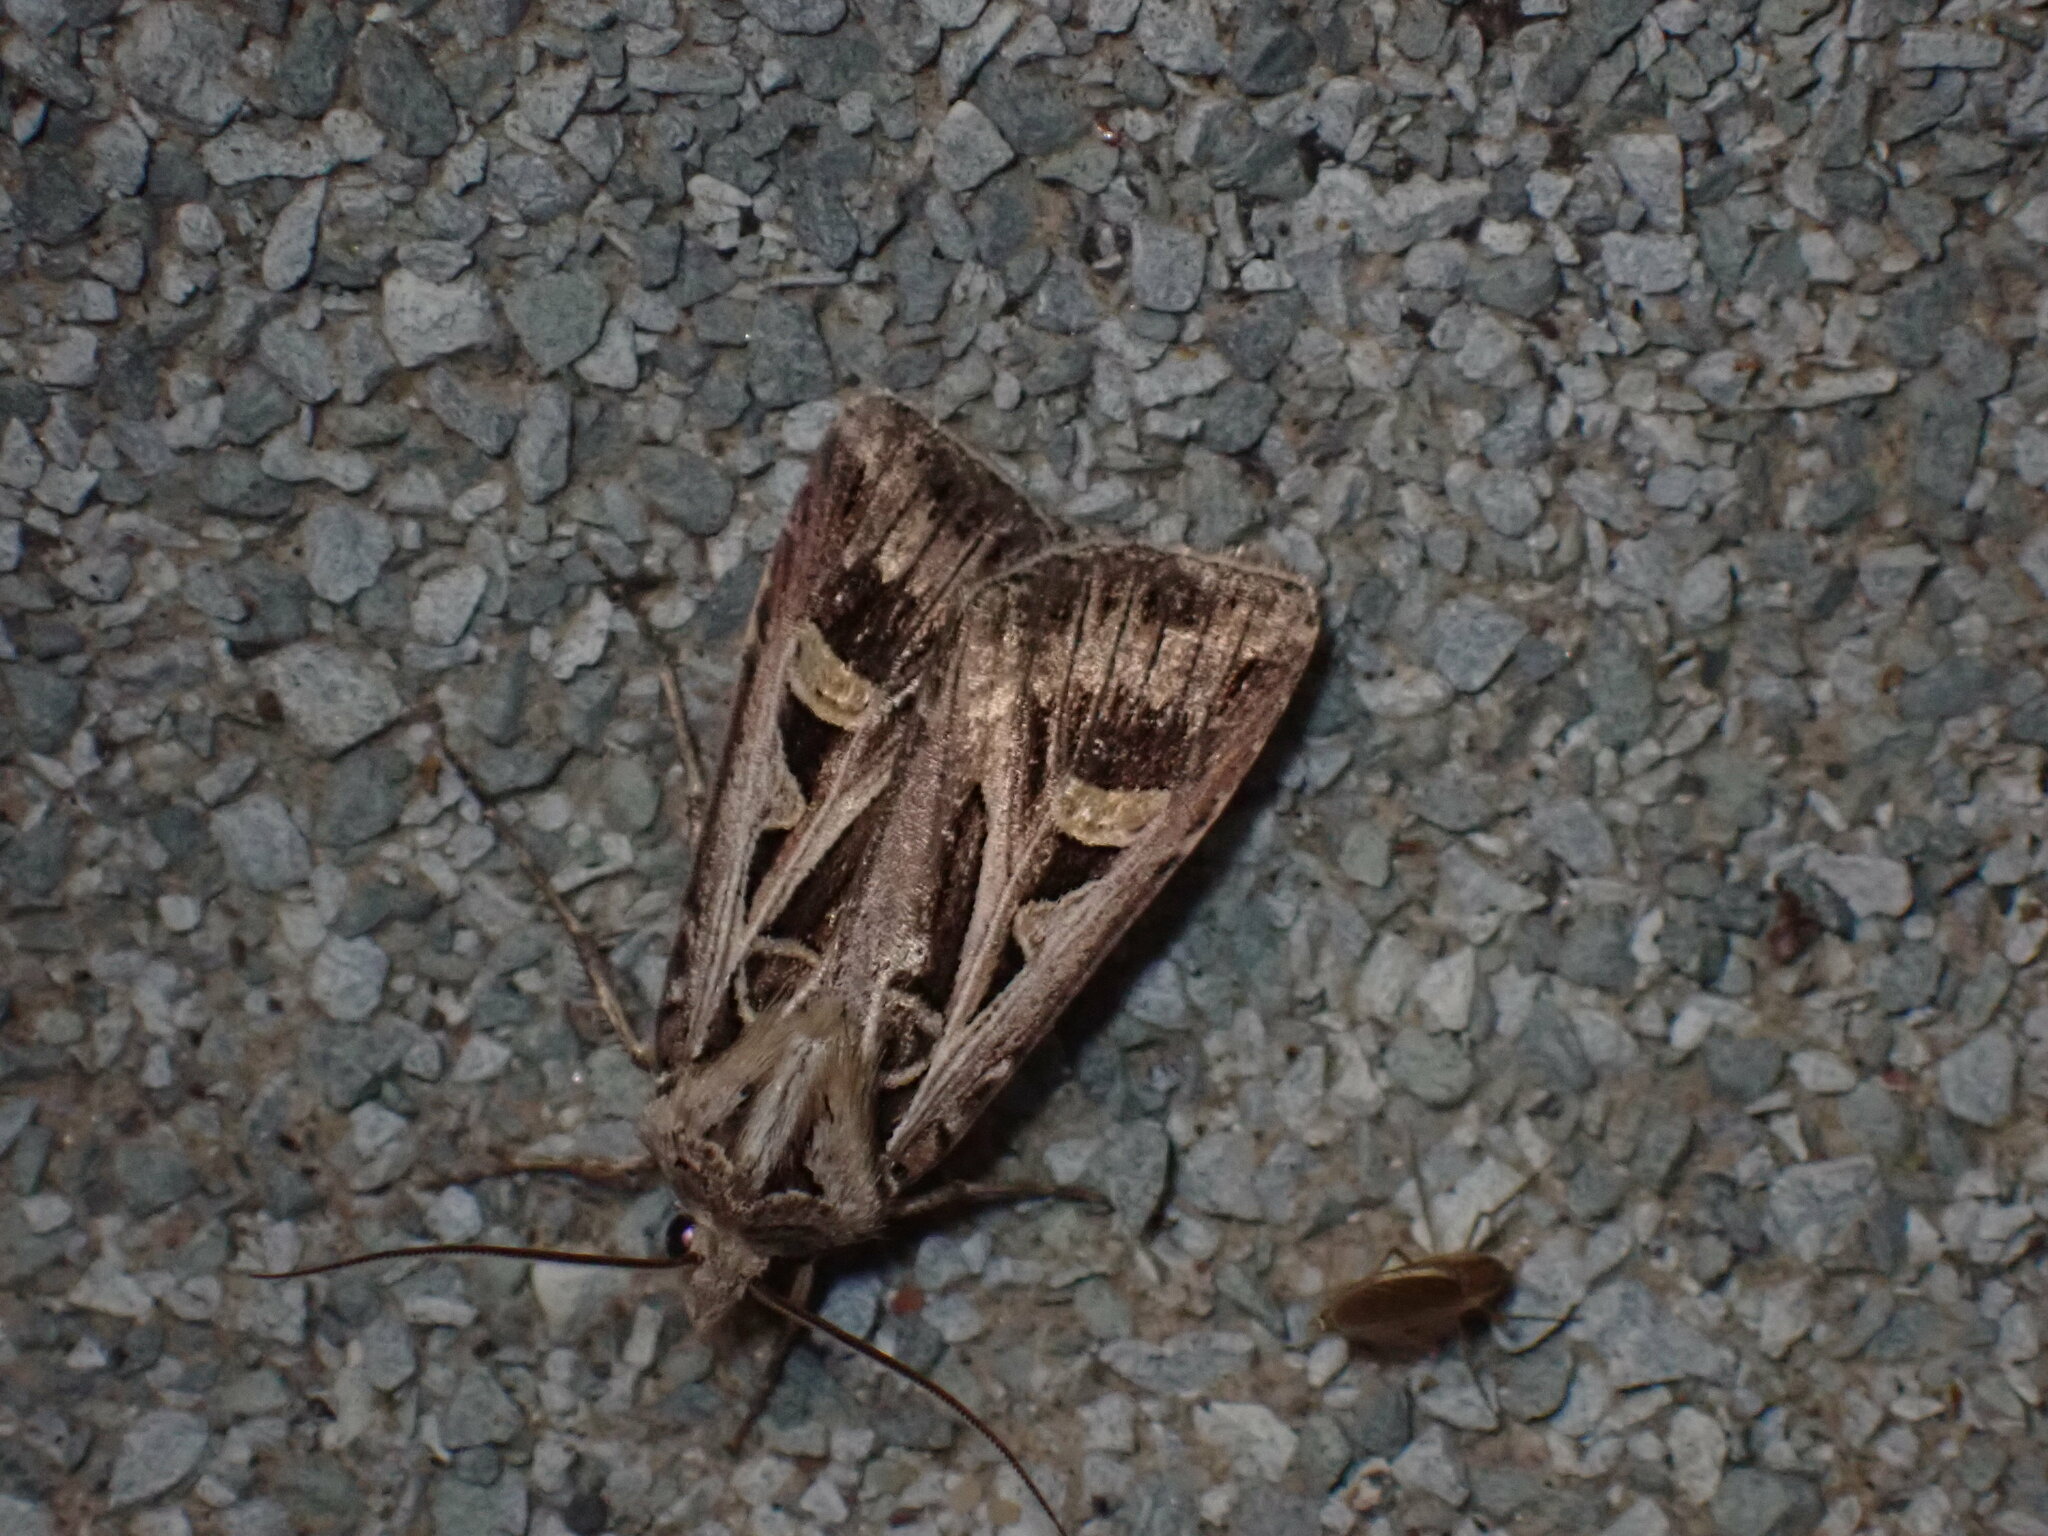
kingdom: Animalia
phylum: Arthropoda
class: Insecta
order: Lepidoptera
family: Noctuidae
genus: Feltia
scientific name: Feltia jaculifera
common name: Dingy cutworm moth
